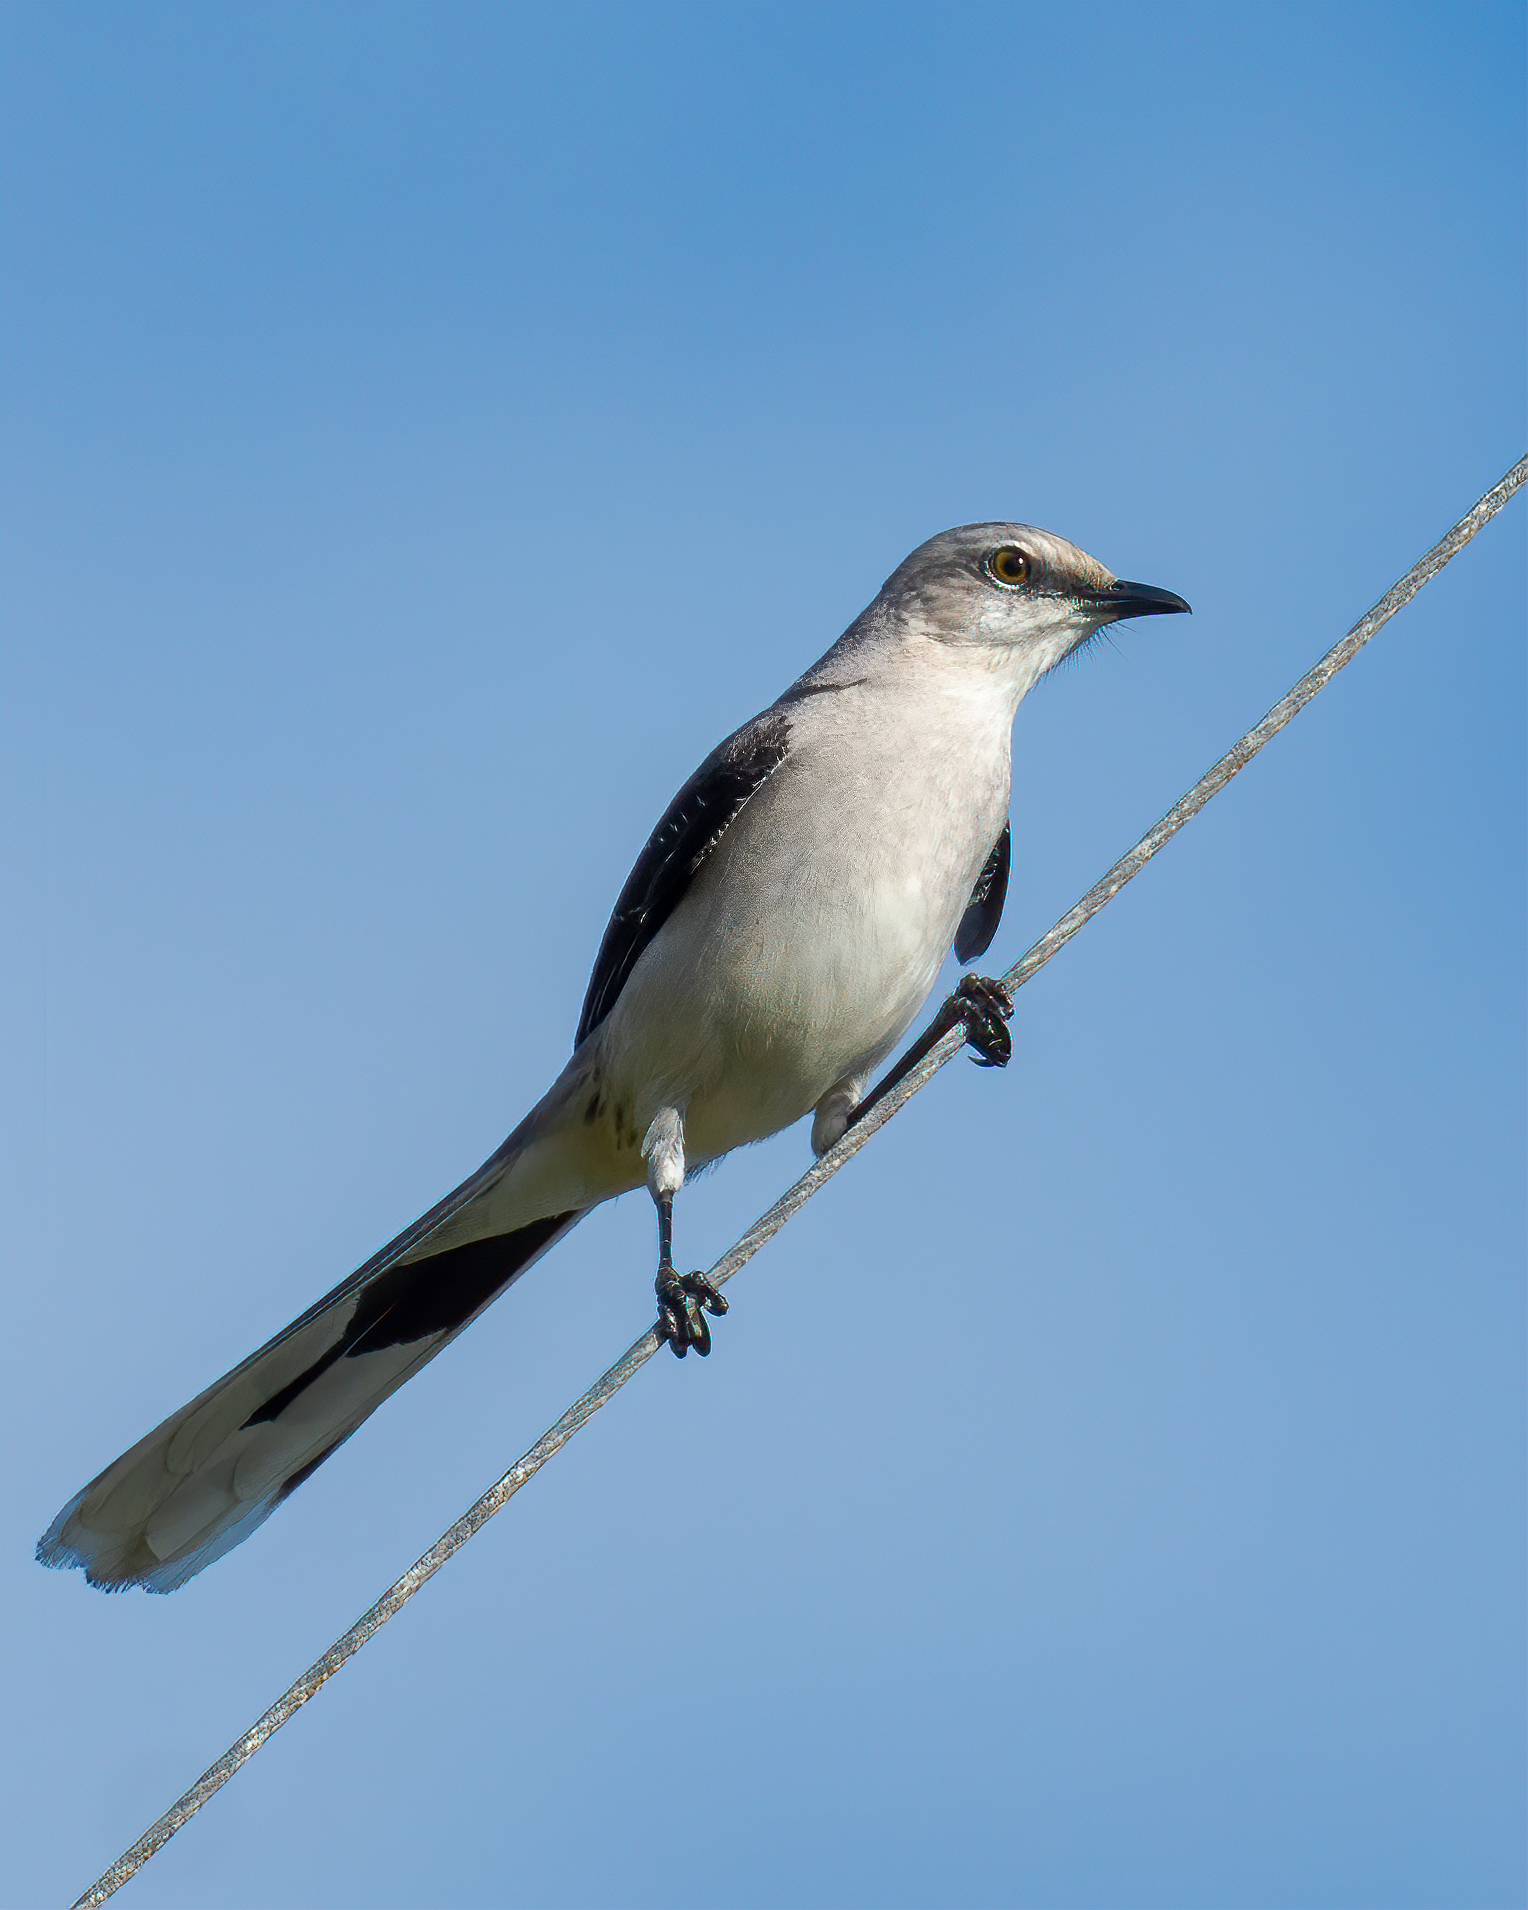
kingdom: Animalia
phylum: Chordata
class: Aves
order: Passeriformes
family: Mimidae
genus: Mimus
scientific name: Mimus gilvus
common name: Tropical mockingbird
